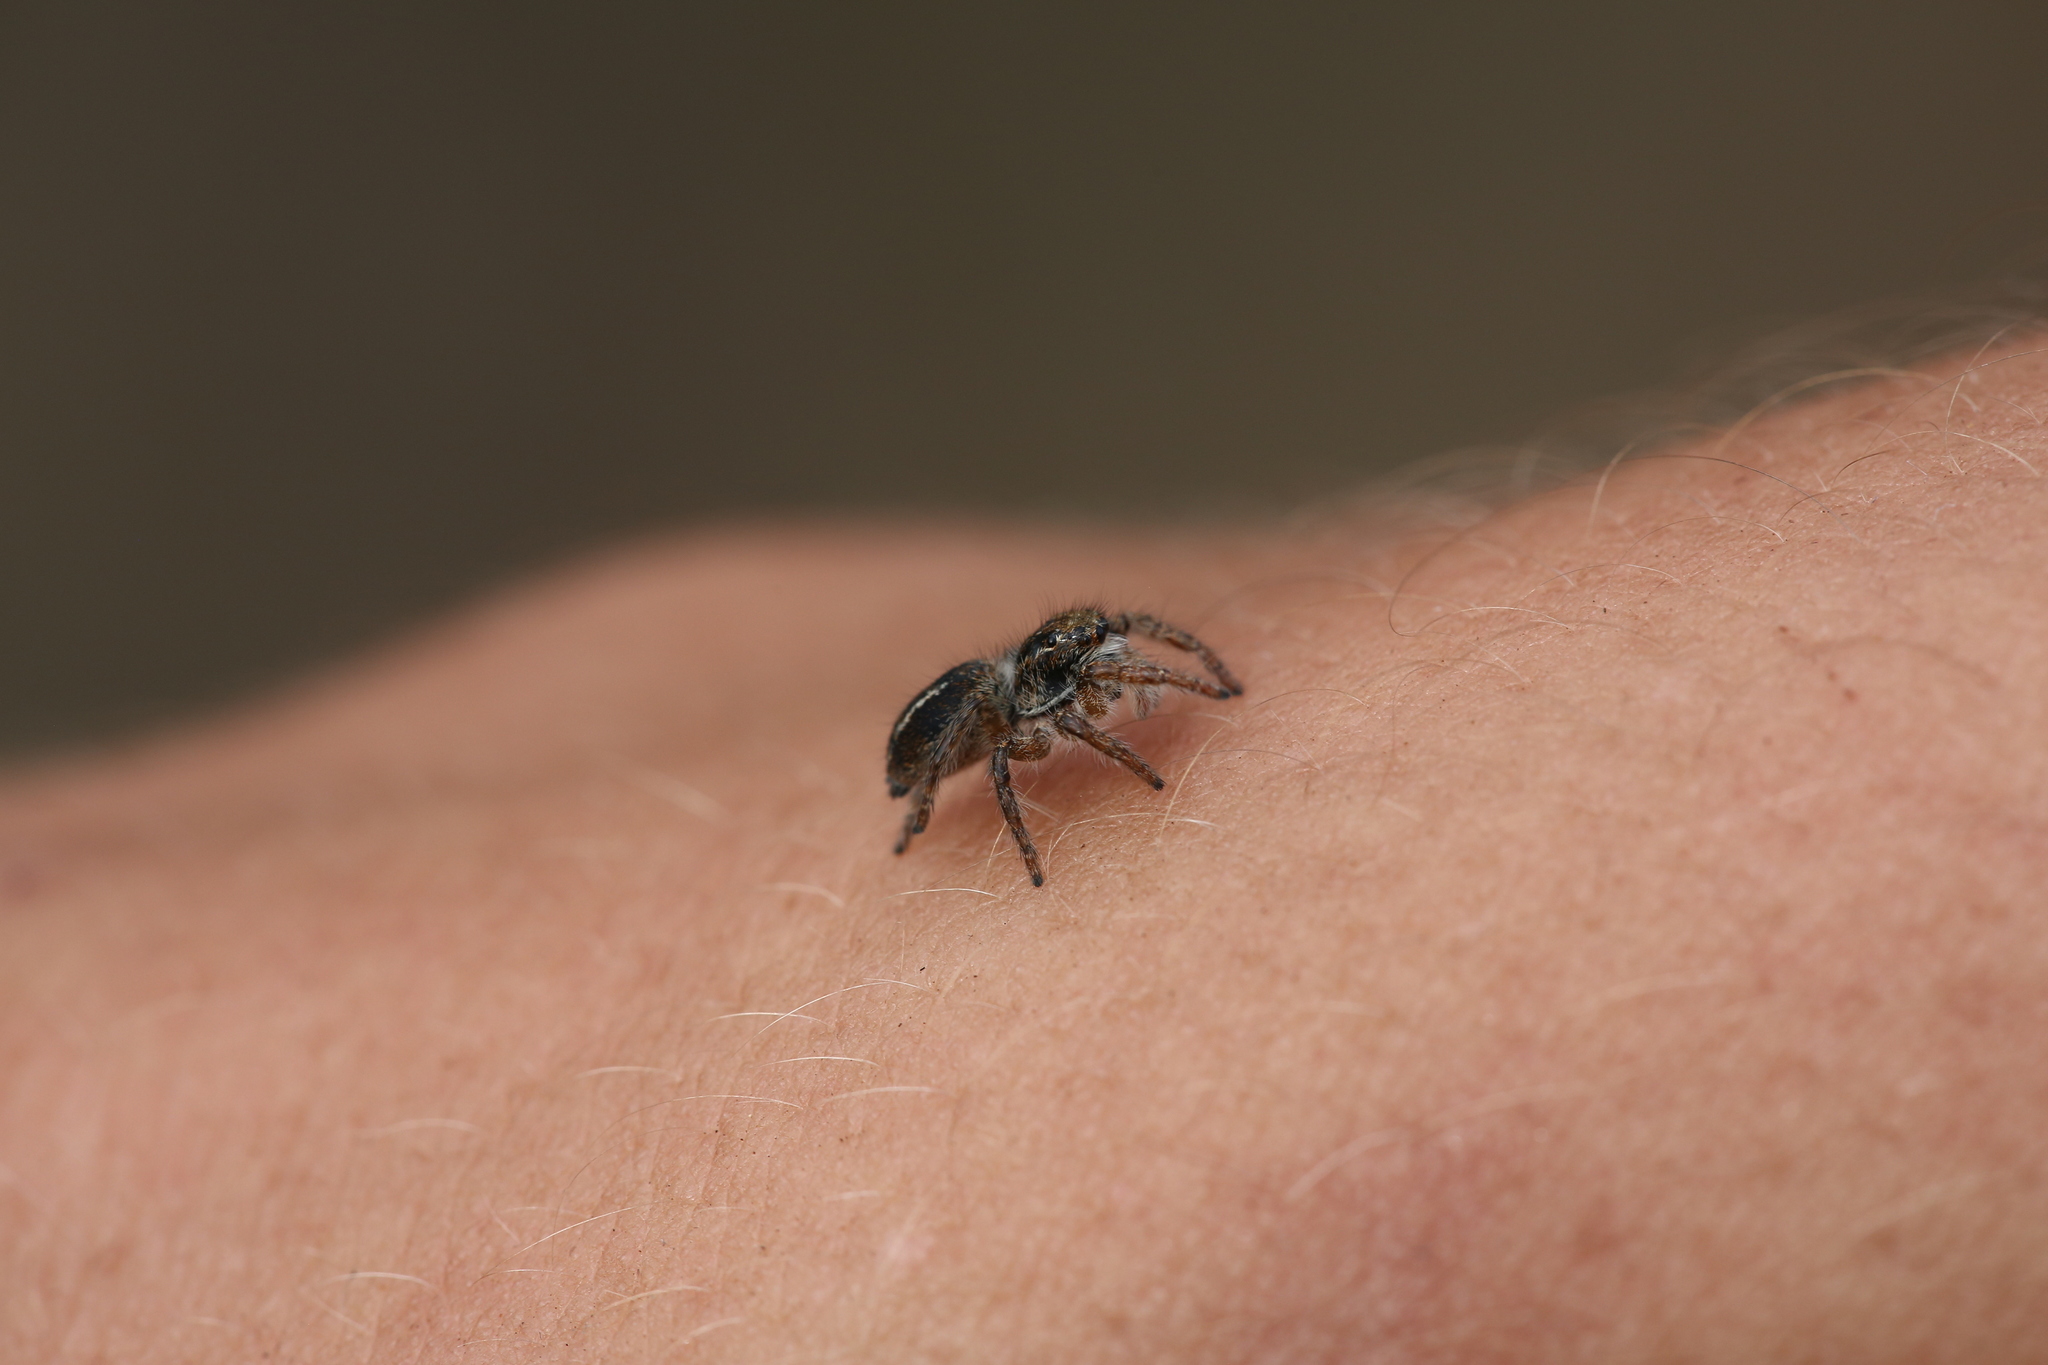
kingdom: Animalia
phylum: Arthropoda
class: Arachnida
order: Araneae
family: Salticidae
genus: Philaeus
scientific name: Philaeus chrysops
